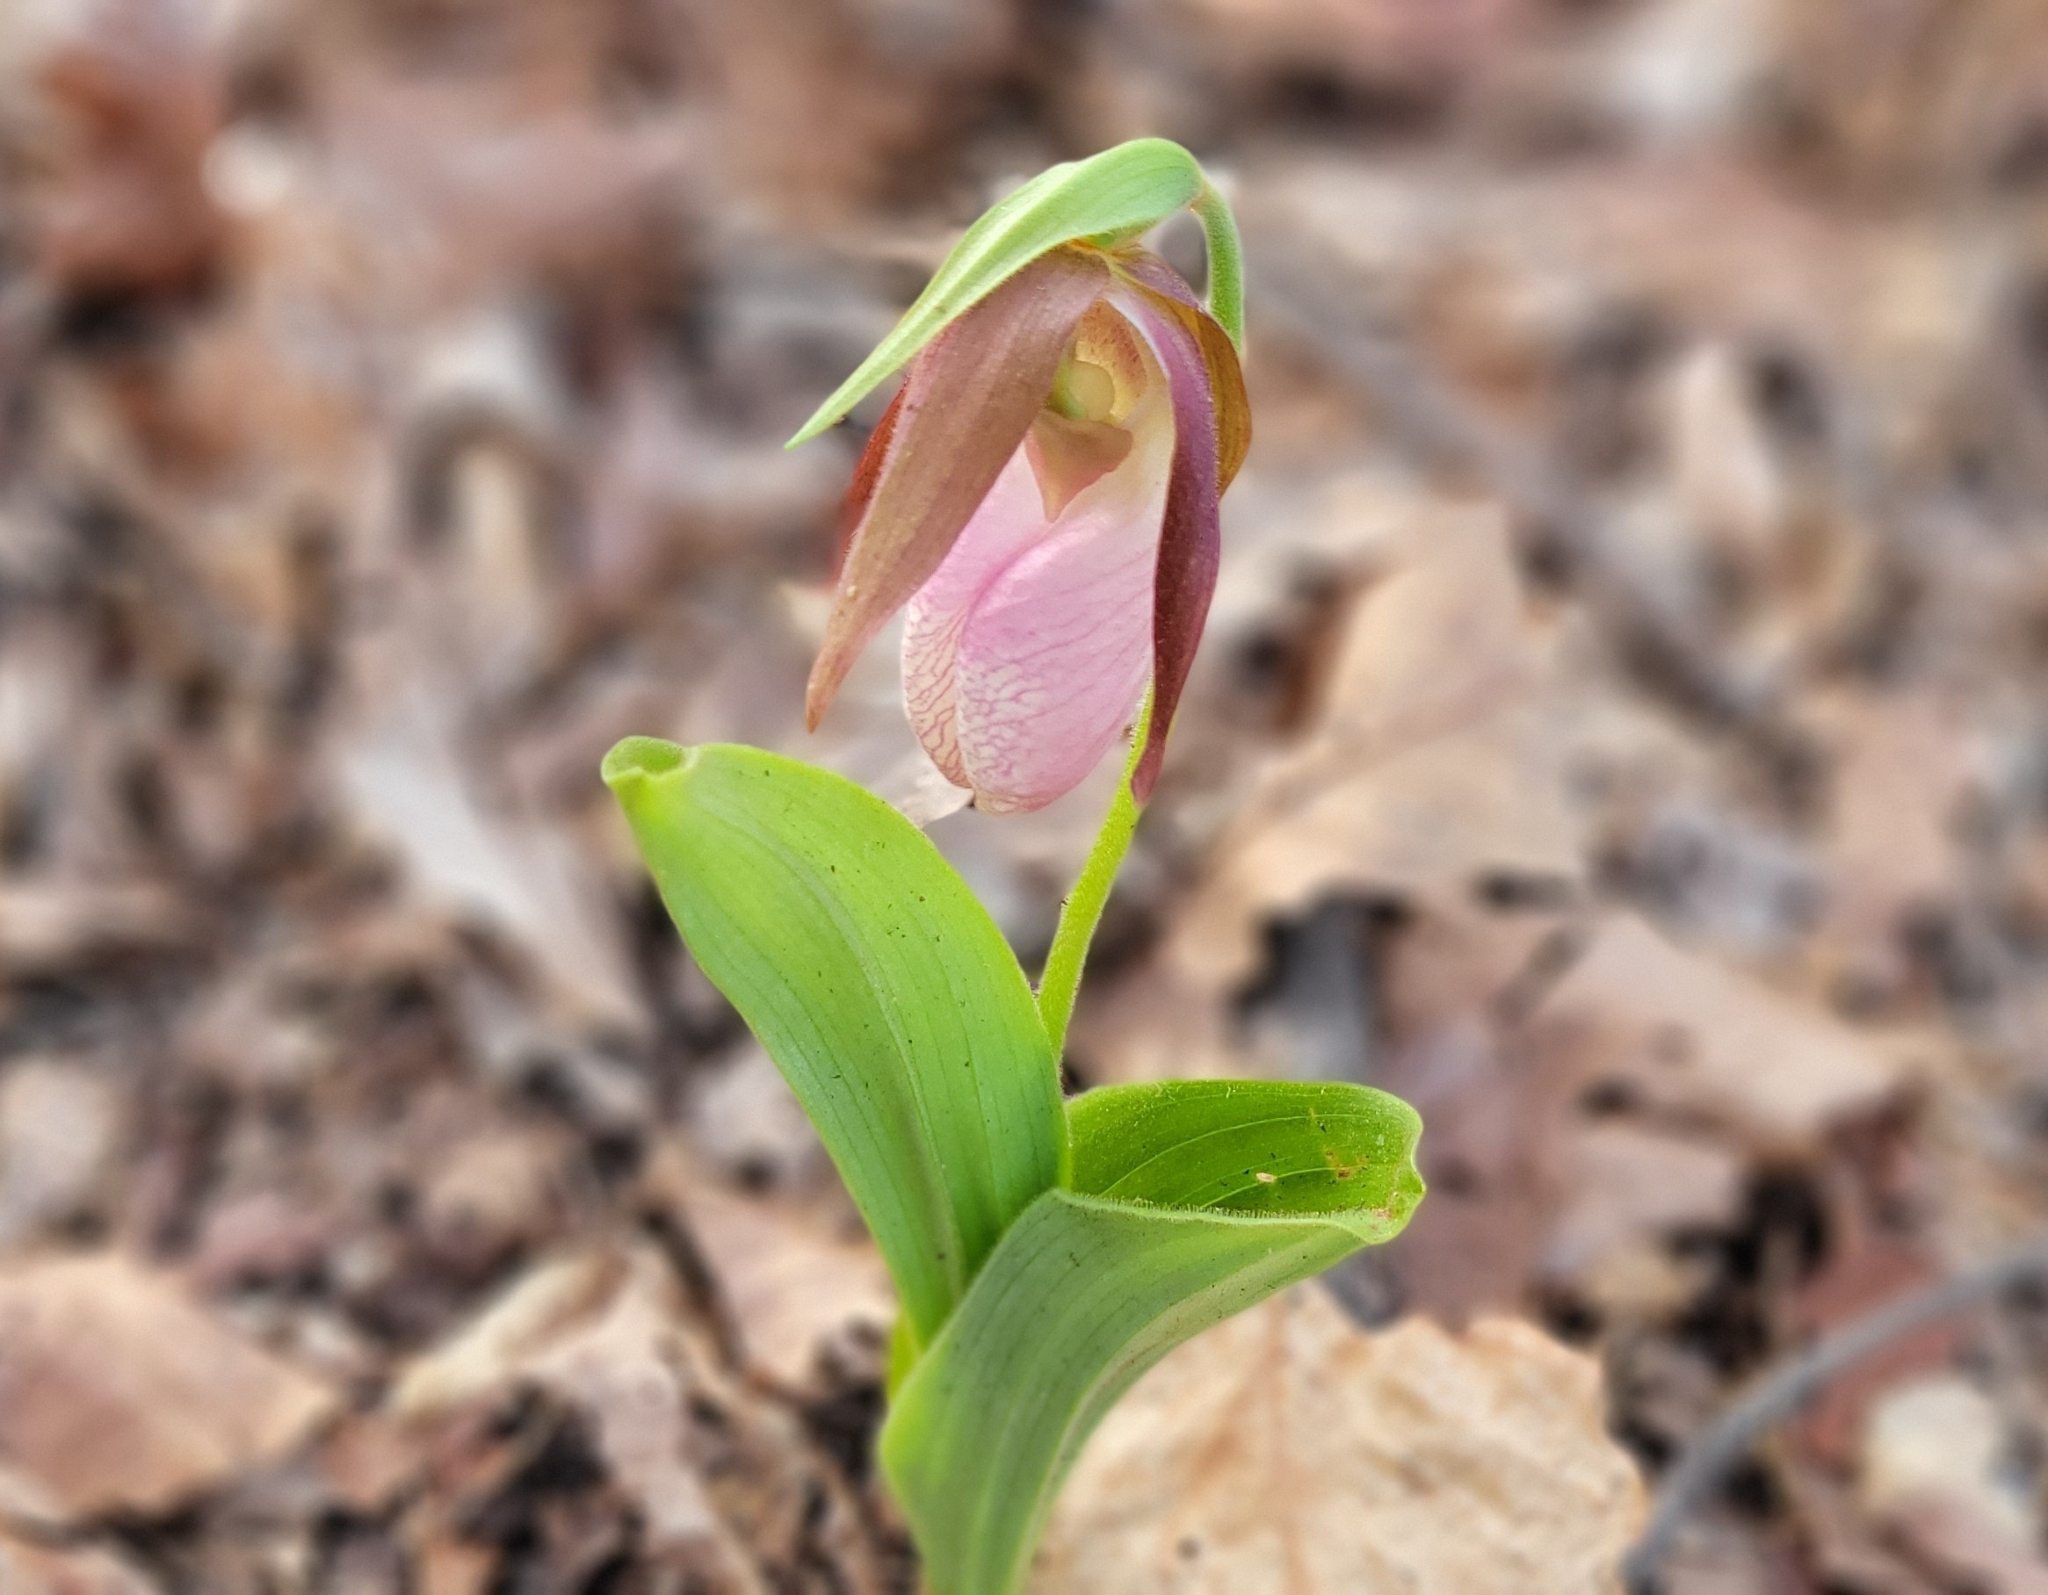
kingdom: Plantae
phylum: Tracheophyta
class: Liliopsida
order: Asparagales
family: Orchidaceae
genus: Cypripedium
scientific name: Cypripedium acaule
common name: Pink lady's-slipper
